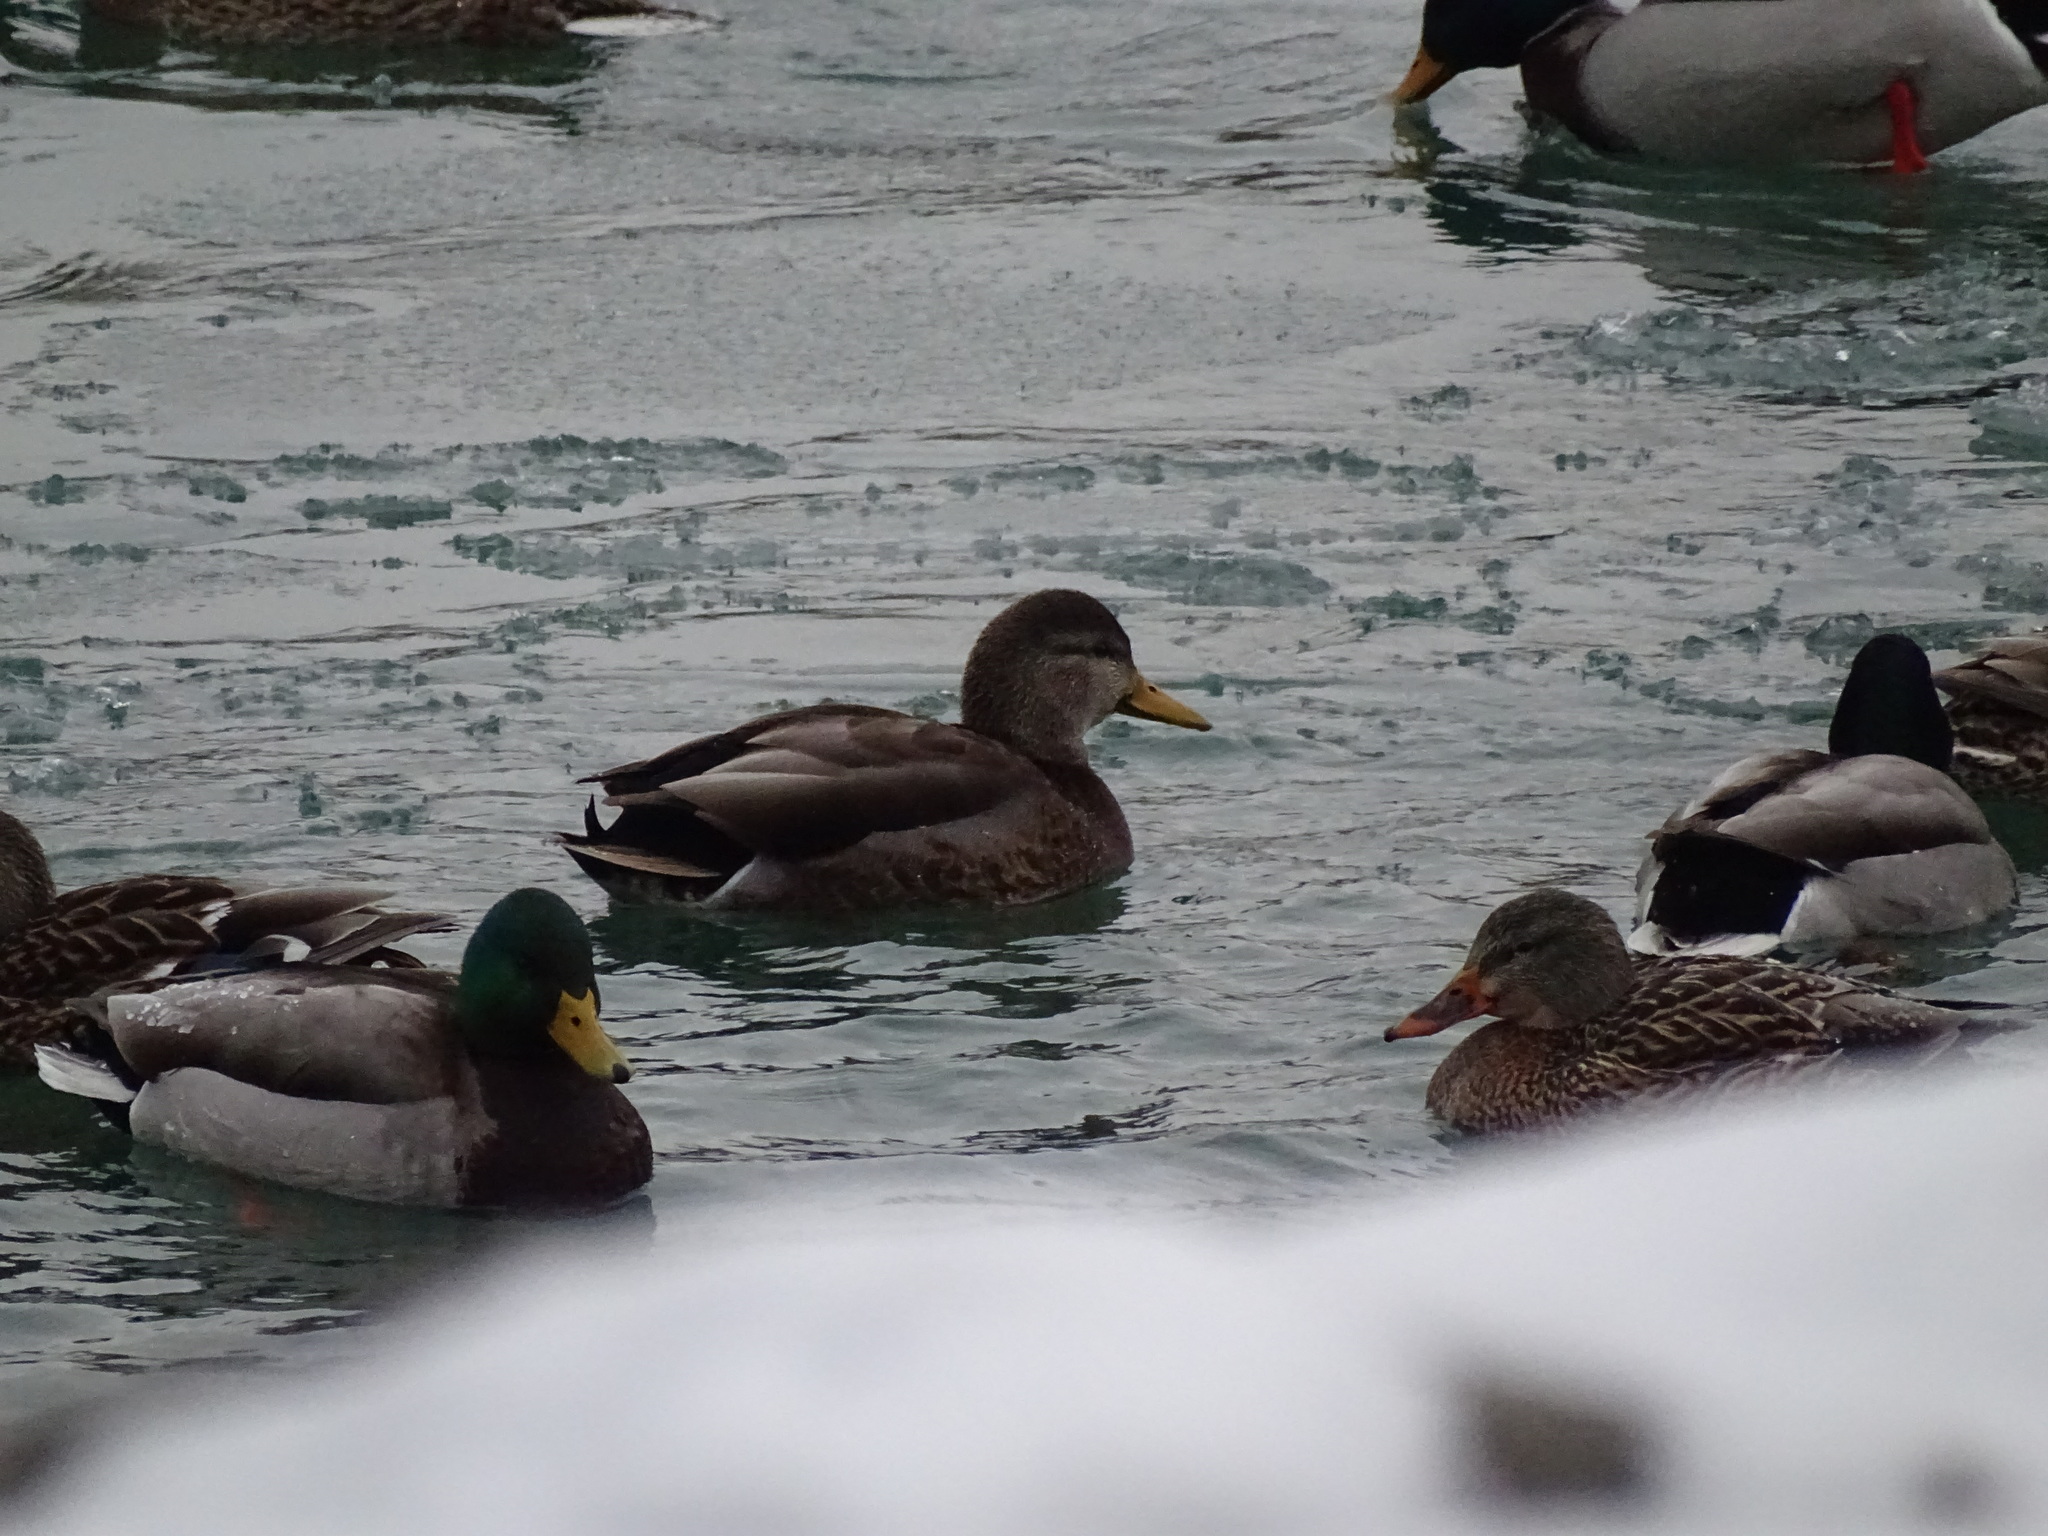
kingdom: Animalia
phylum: Chordata
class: Aves
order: Anseriformes
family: Anatidae
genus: Anas
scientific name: Anas
